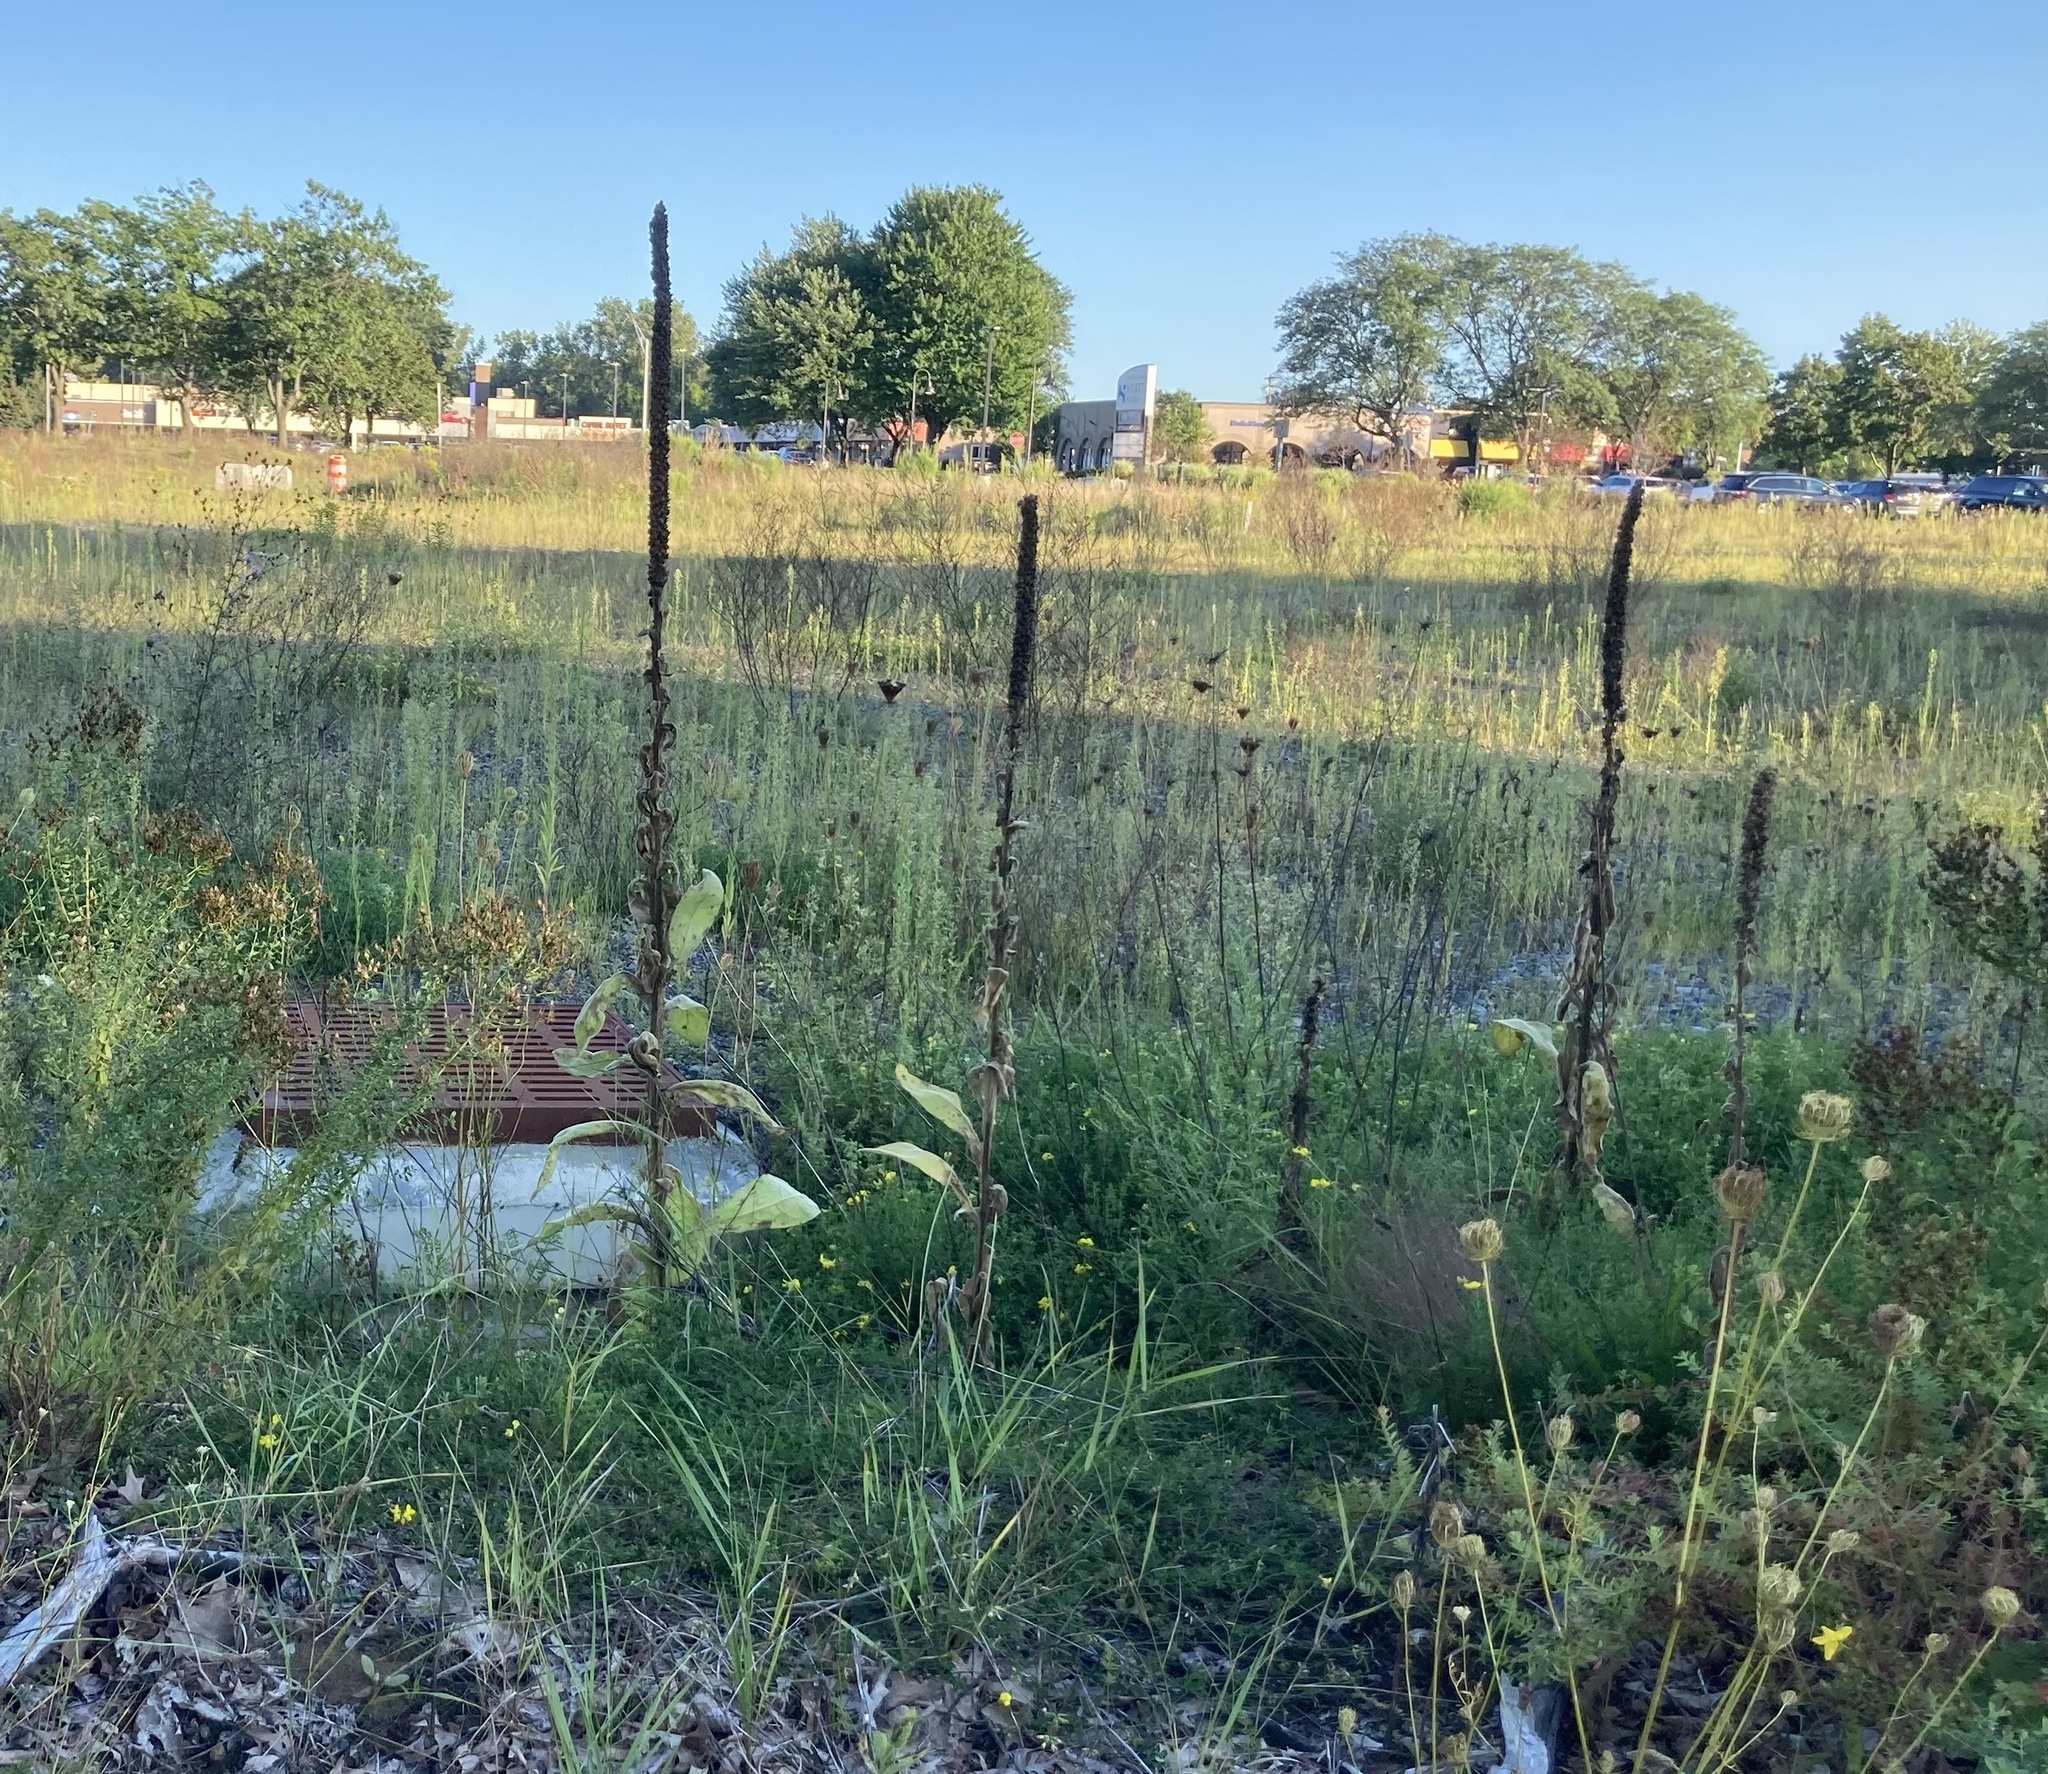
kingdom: Plantae
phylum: Tracheophyta
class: Magnoliopsida
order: Lamiales
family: Scrophulariaceae
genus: Verbascum
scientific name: Verbascum thapsus
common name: Common mullein
